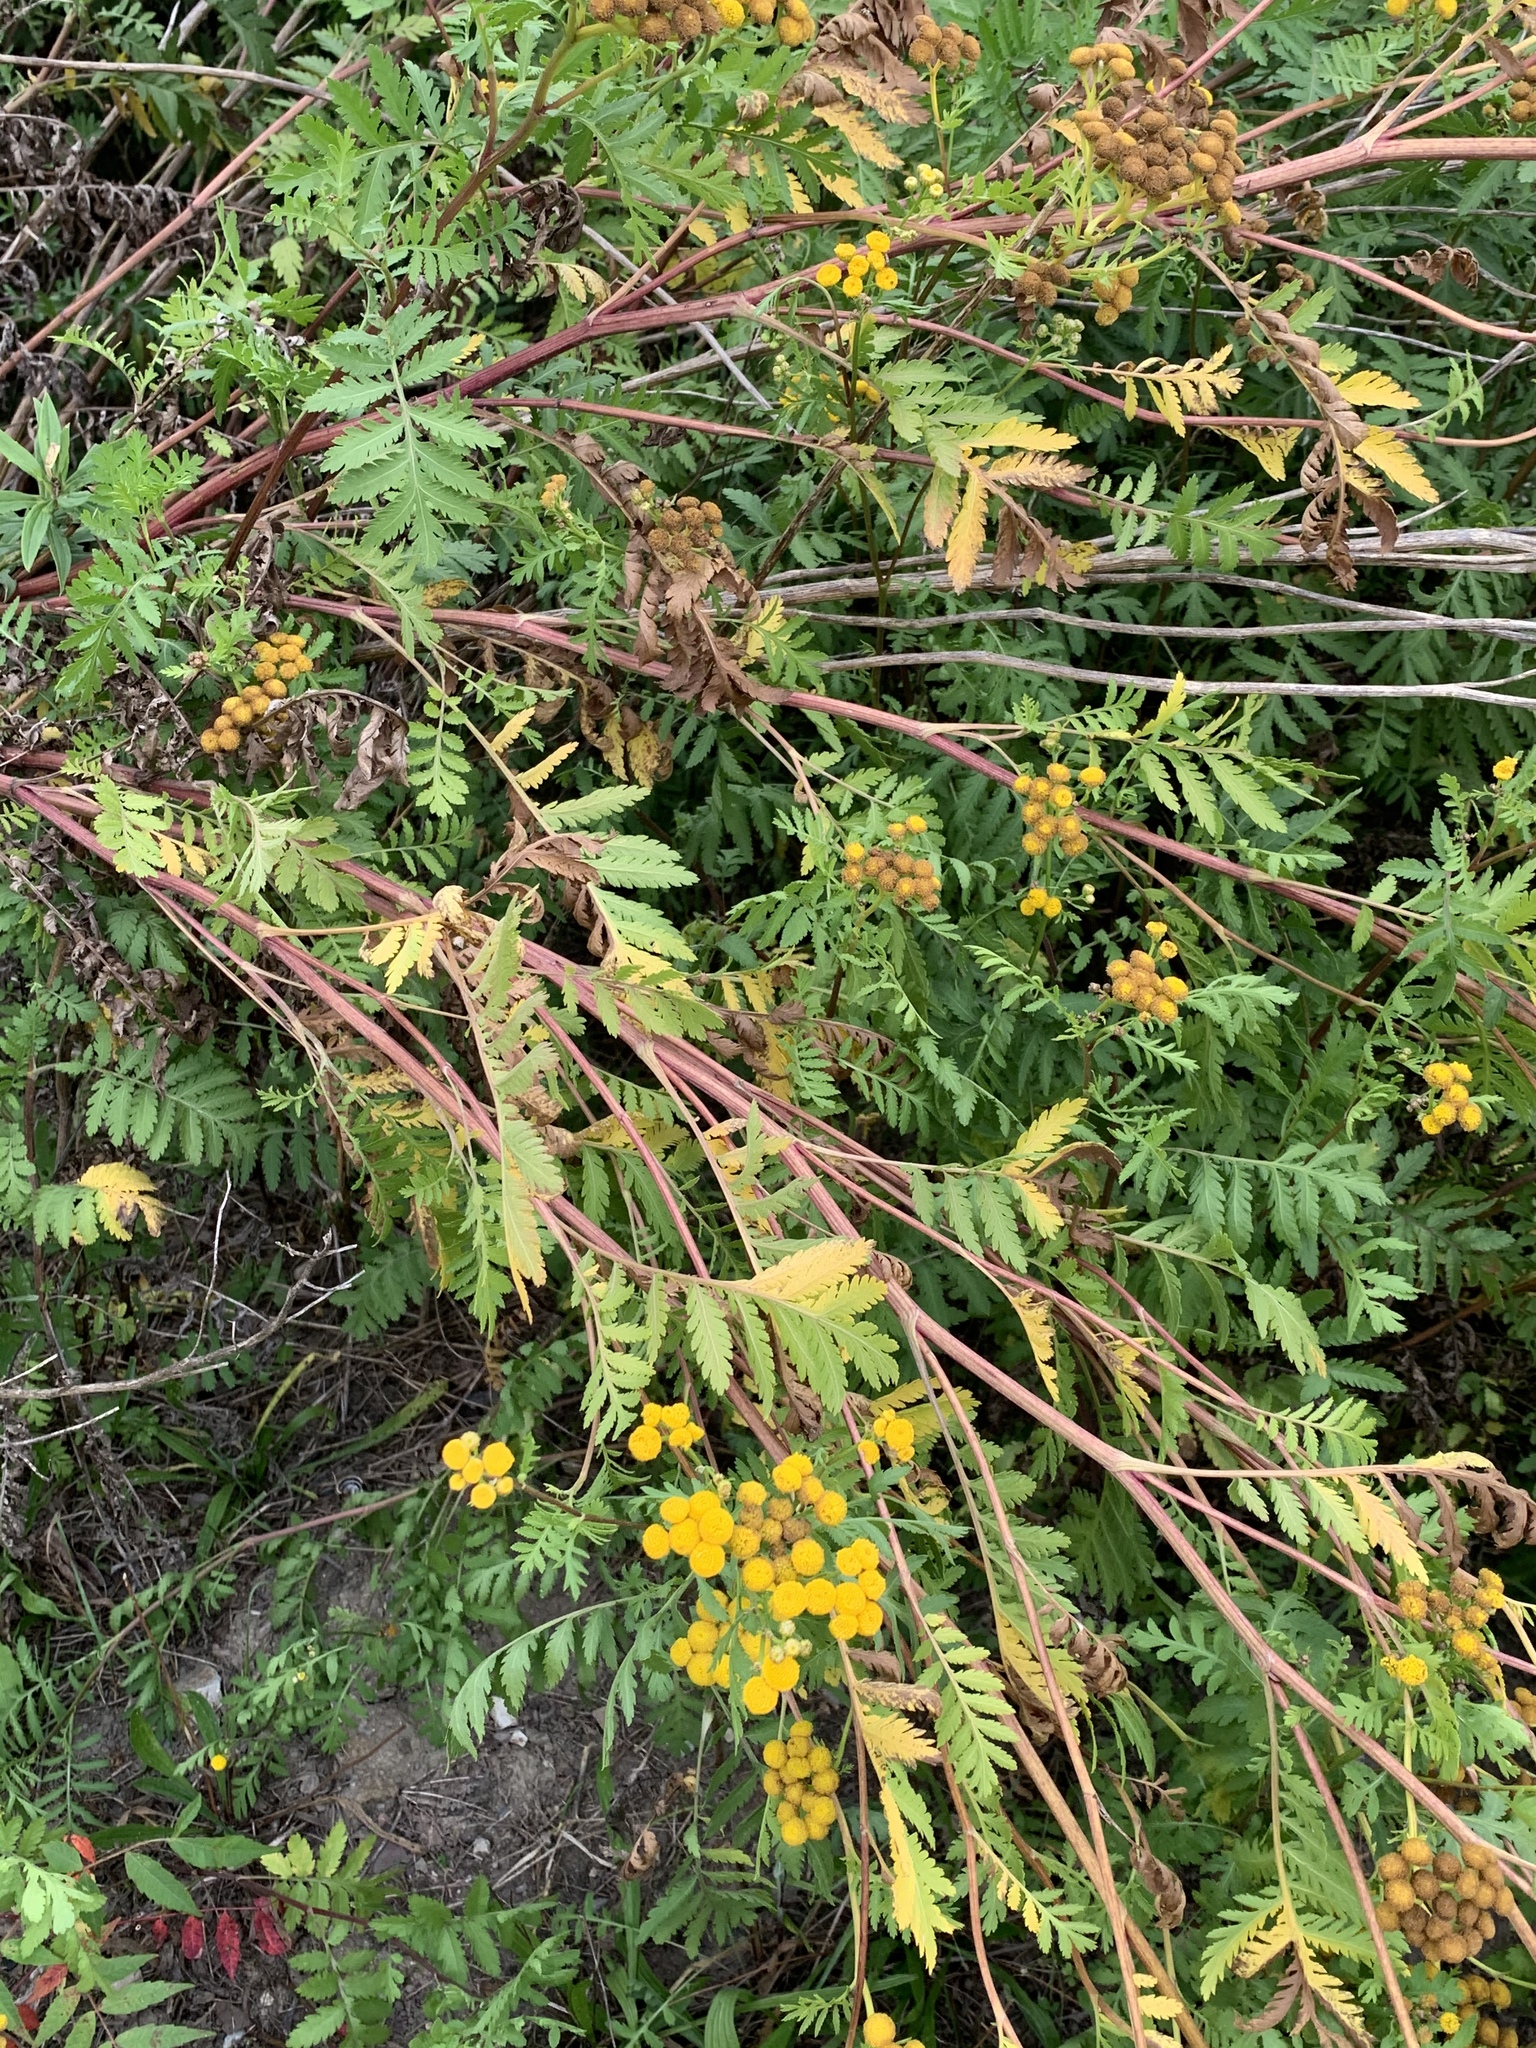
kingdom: Plantae
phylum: Tracheophyta
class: Magnoliopsida
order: Asterales
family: Asteraceae
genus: Tanacetum
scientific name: Tanacetum vulgare
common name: Common tansy
